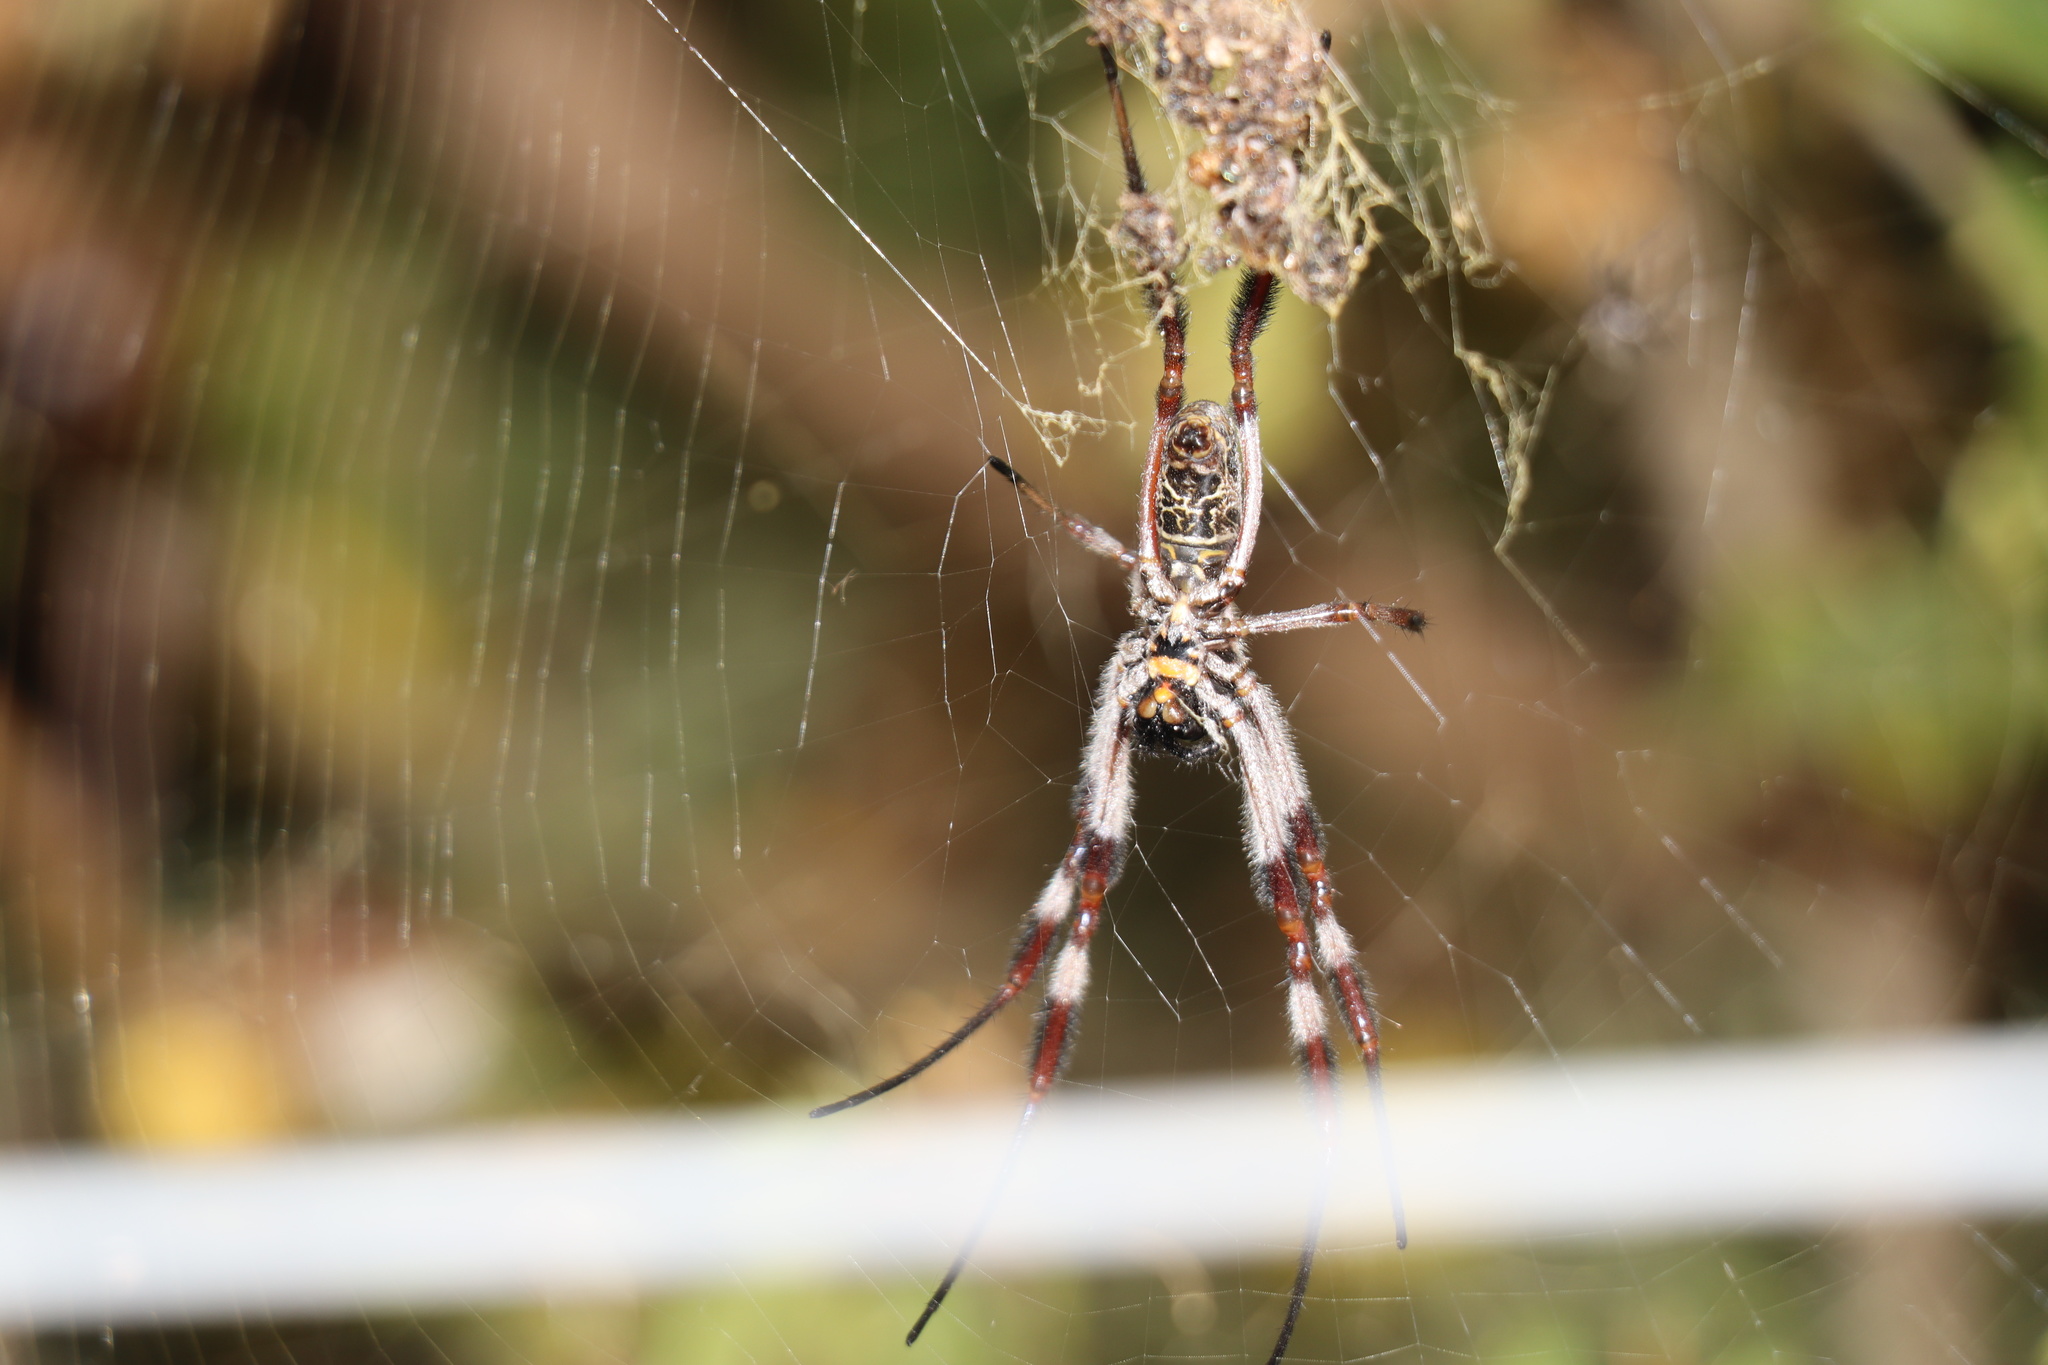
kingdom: Animalia
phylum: Arthropoda
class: Arachnida
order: Araneae
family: Araneidae
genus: Trichonephila
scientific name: Trichonephila edulis
